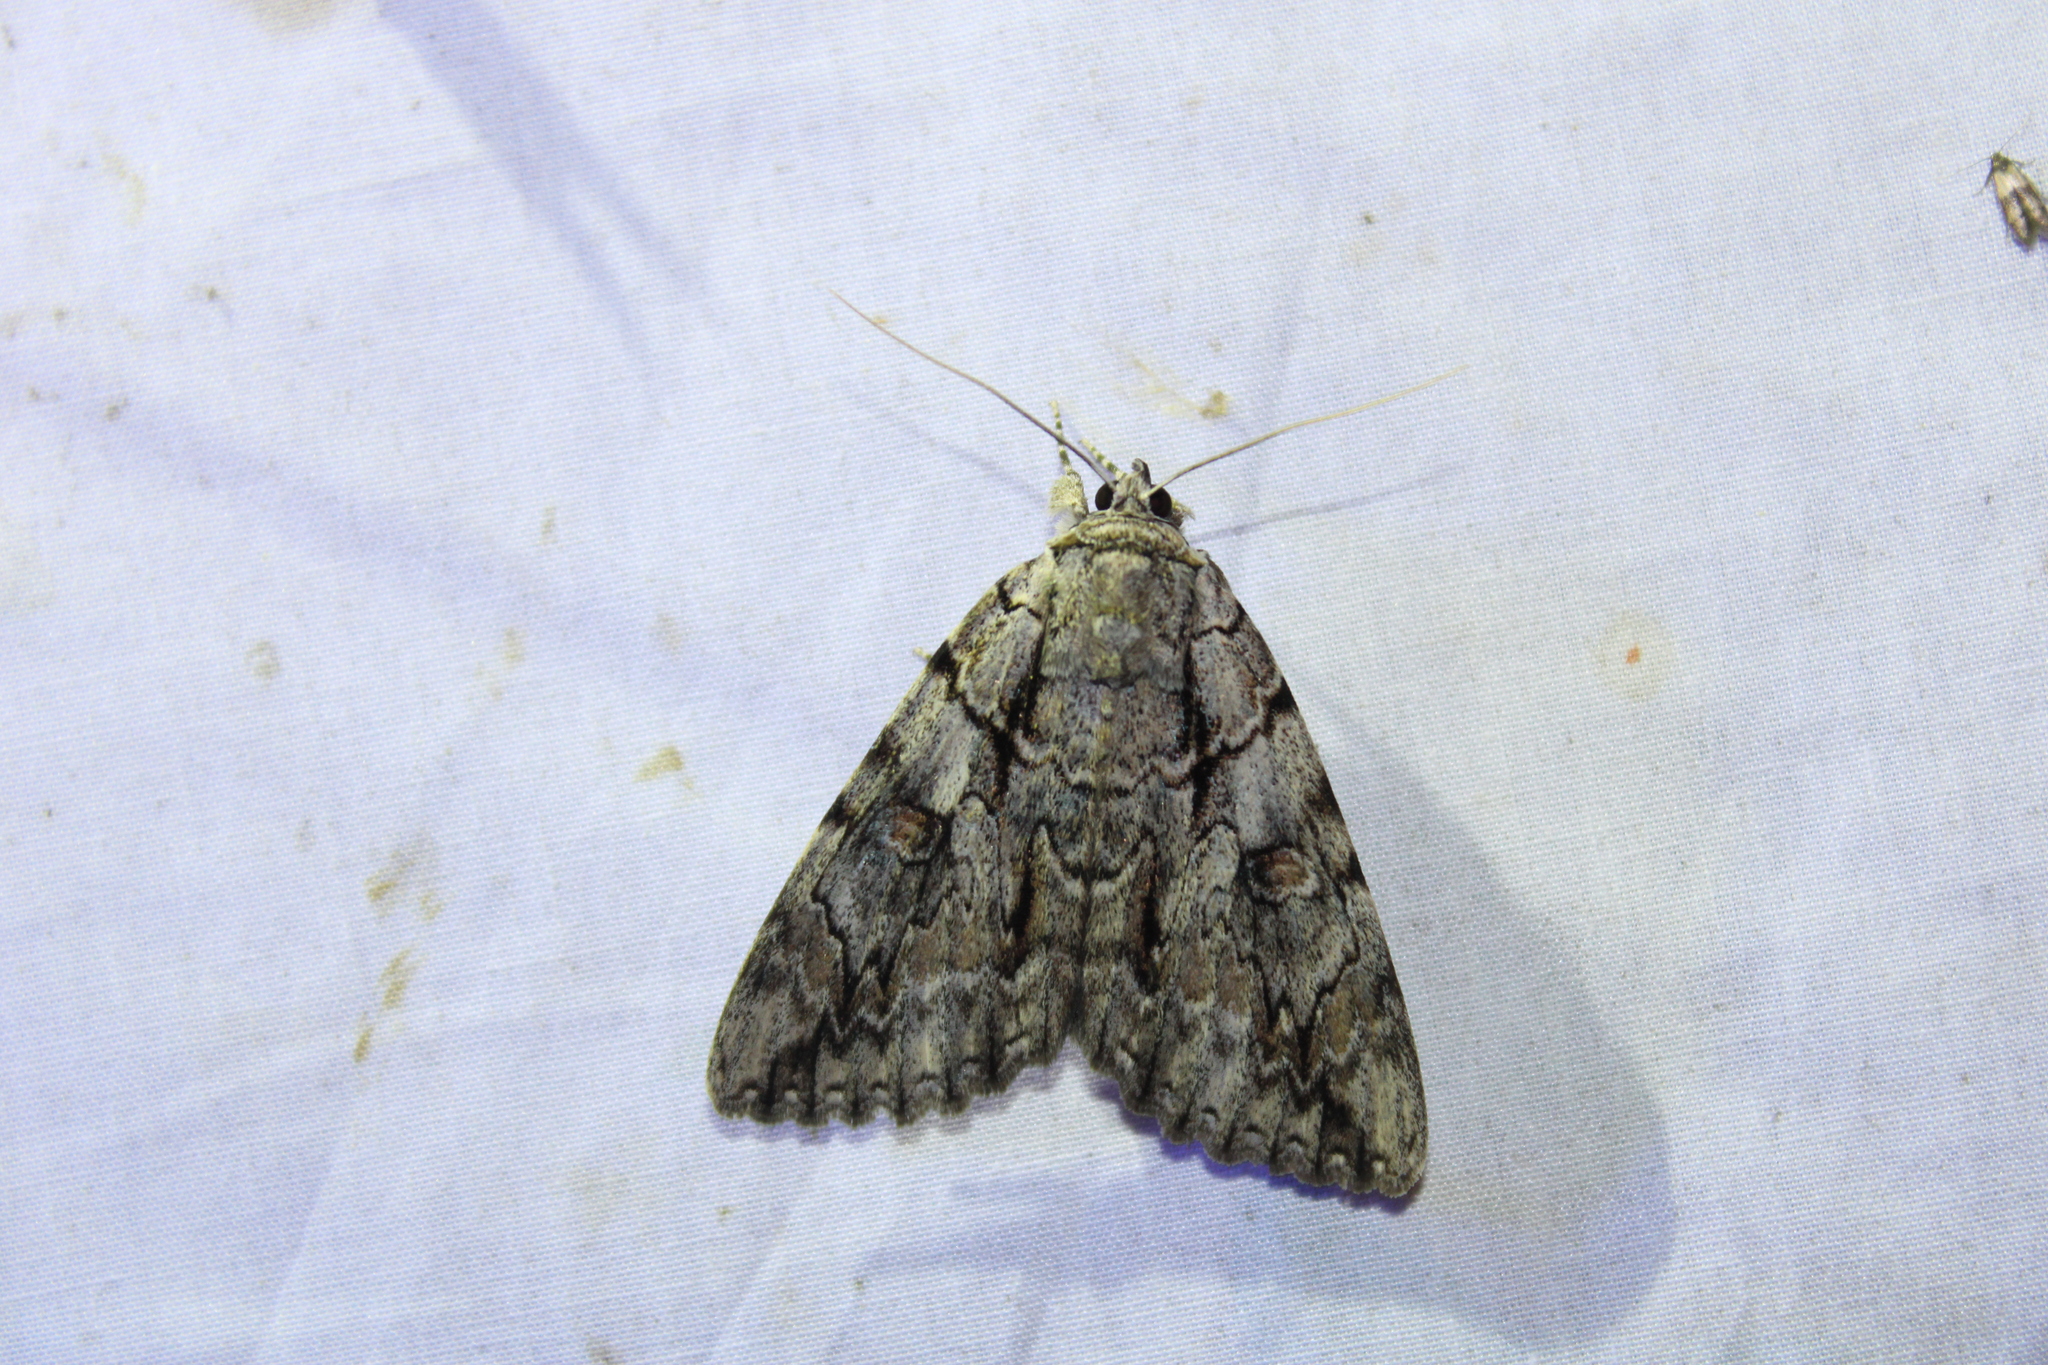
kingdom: Animalia
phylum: Arthropoda
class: Insecta
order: Lepidoptera
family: Erebidae
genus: Catocala
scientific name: Catocala retecta
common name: Yellow-gray underwing
